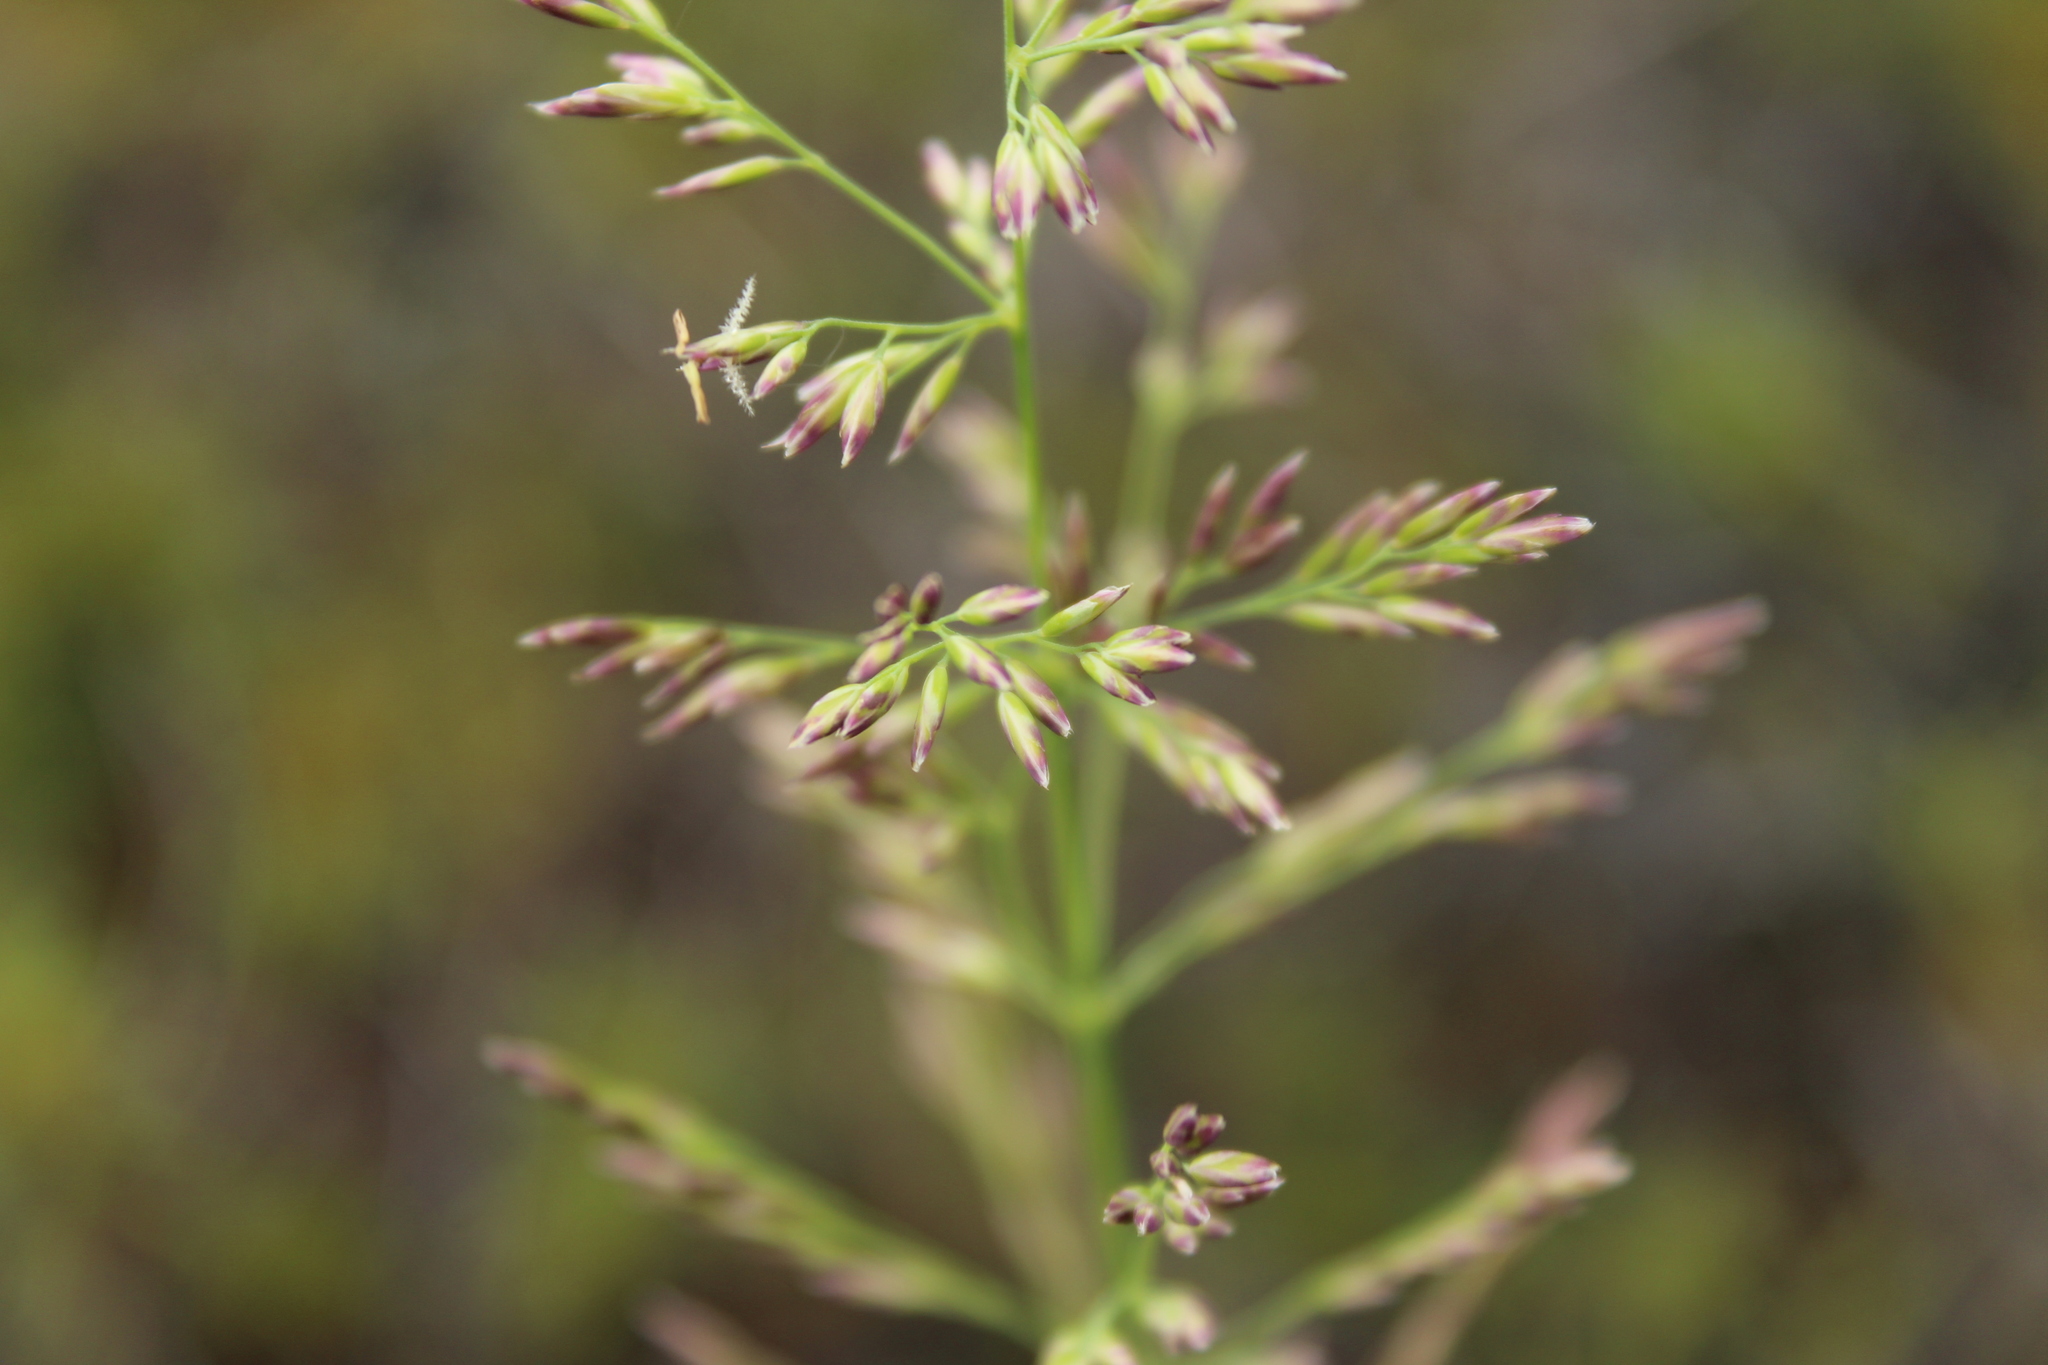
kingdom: Plantae
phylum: Tracheophyta
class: Liliopsida
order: Poales
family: Poaceae
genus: Arctagrostis
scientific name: Arctagrostis latifolia
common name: Arctic grass
